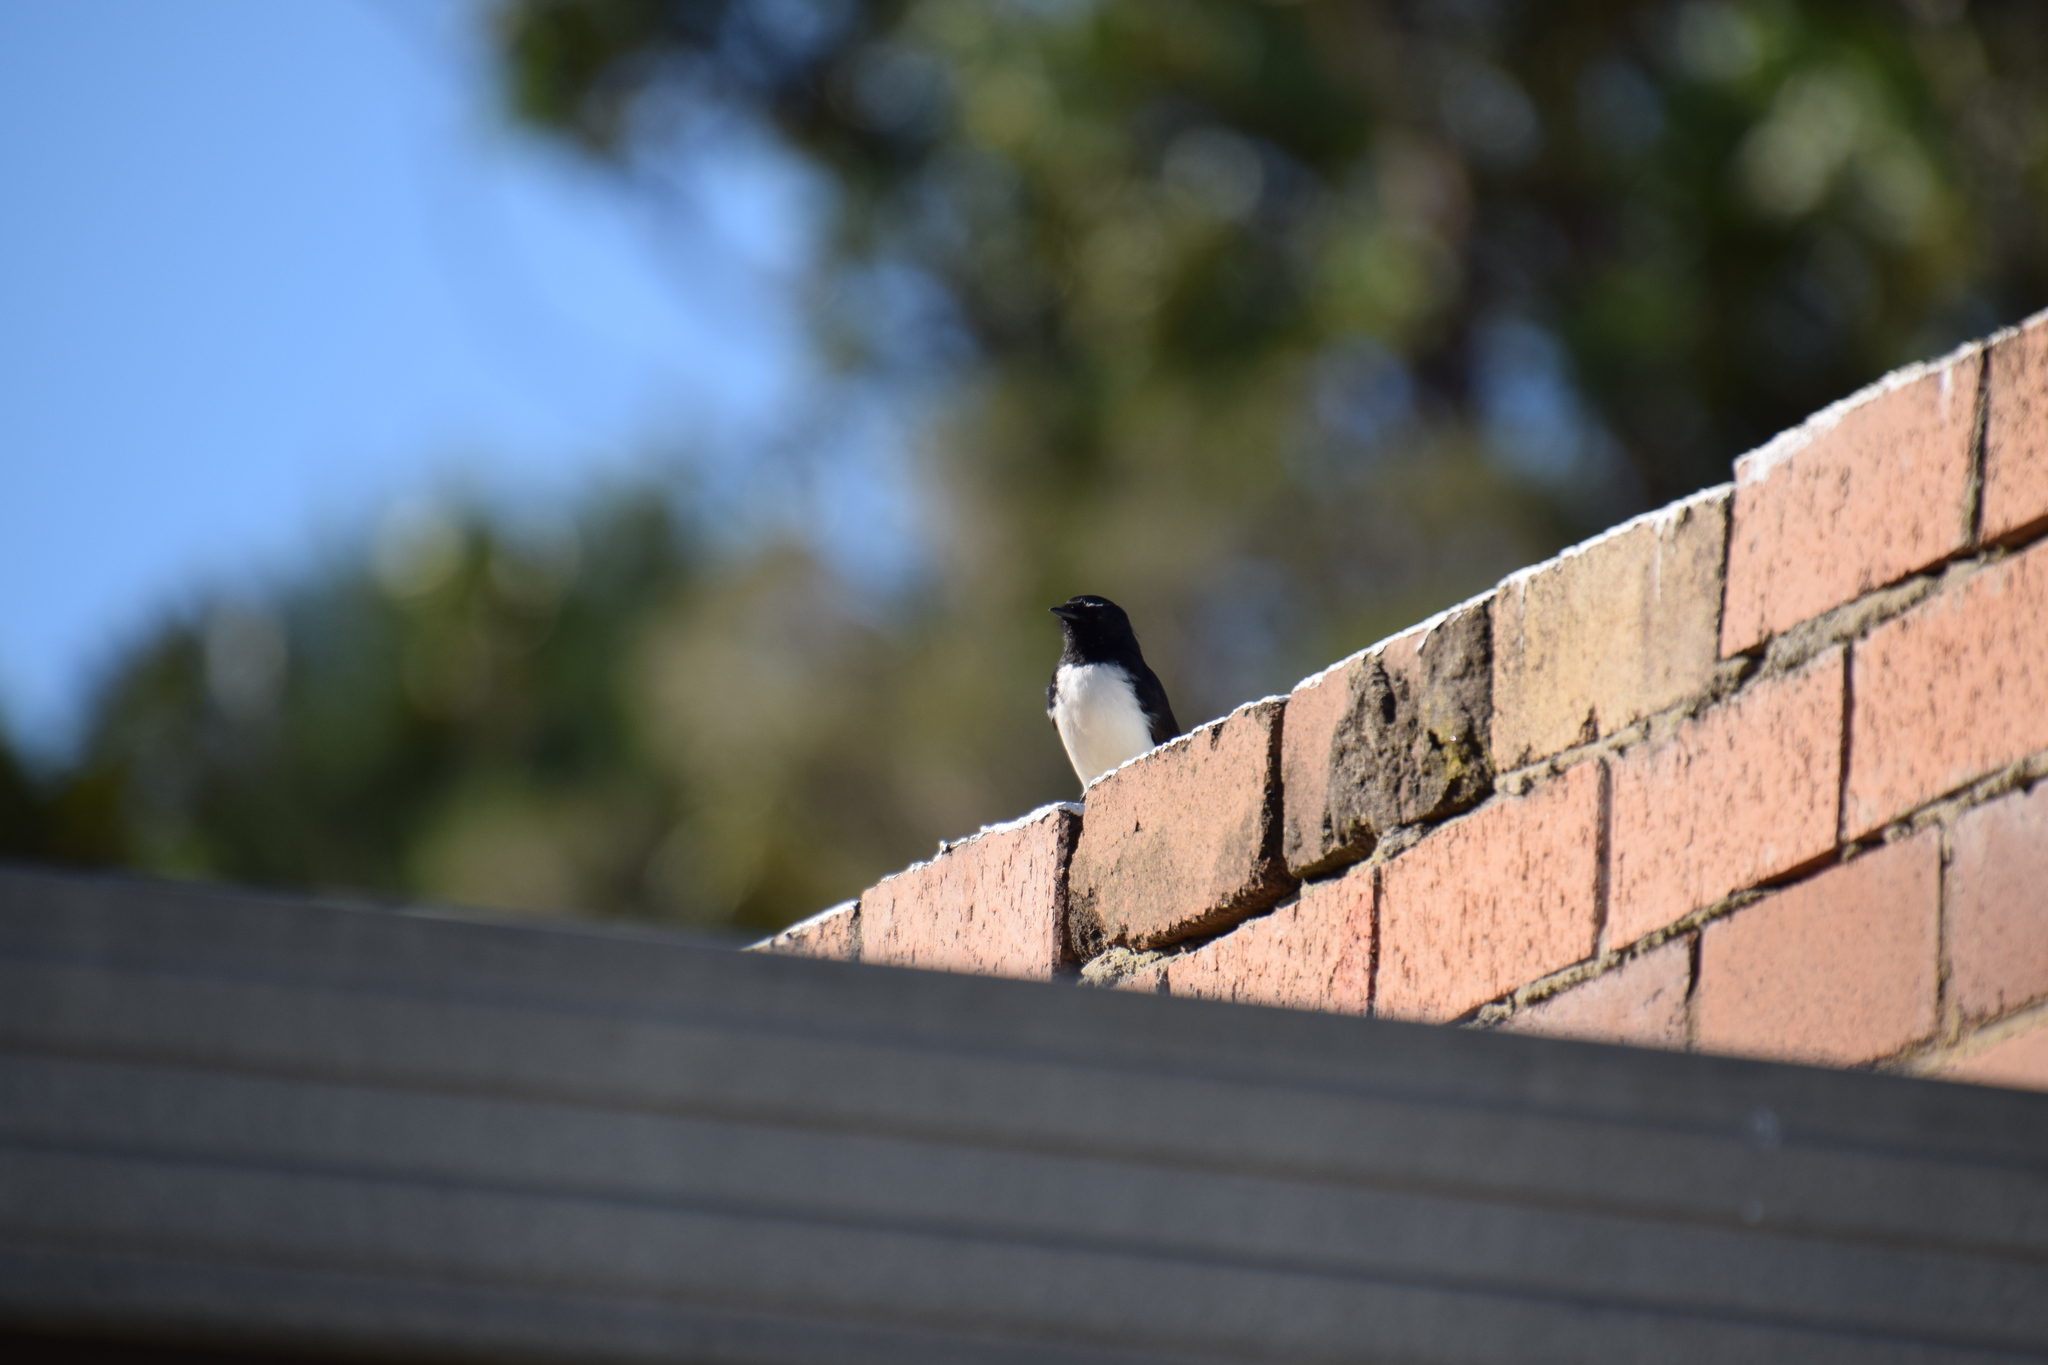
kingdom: Animalia
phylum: Chordata
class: Aves
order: Passeriformes
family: Rhipiduridae
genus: Rhipidura
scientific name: Rhipidura leucophrys
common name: Willie wagtail
